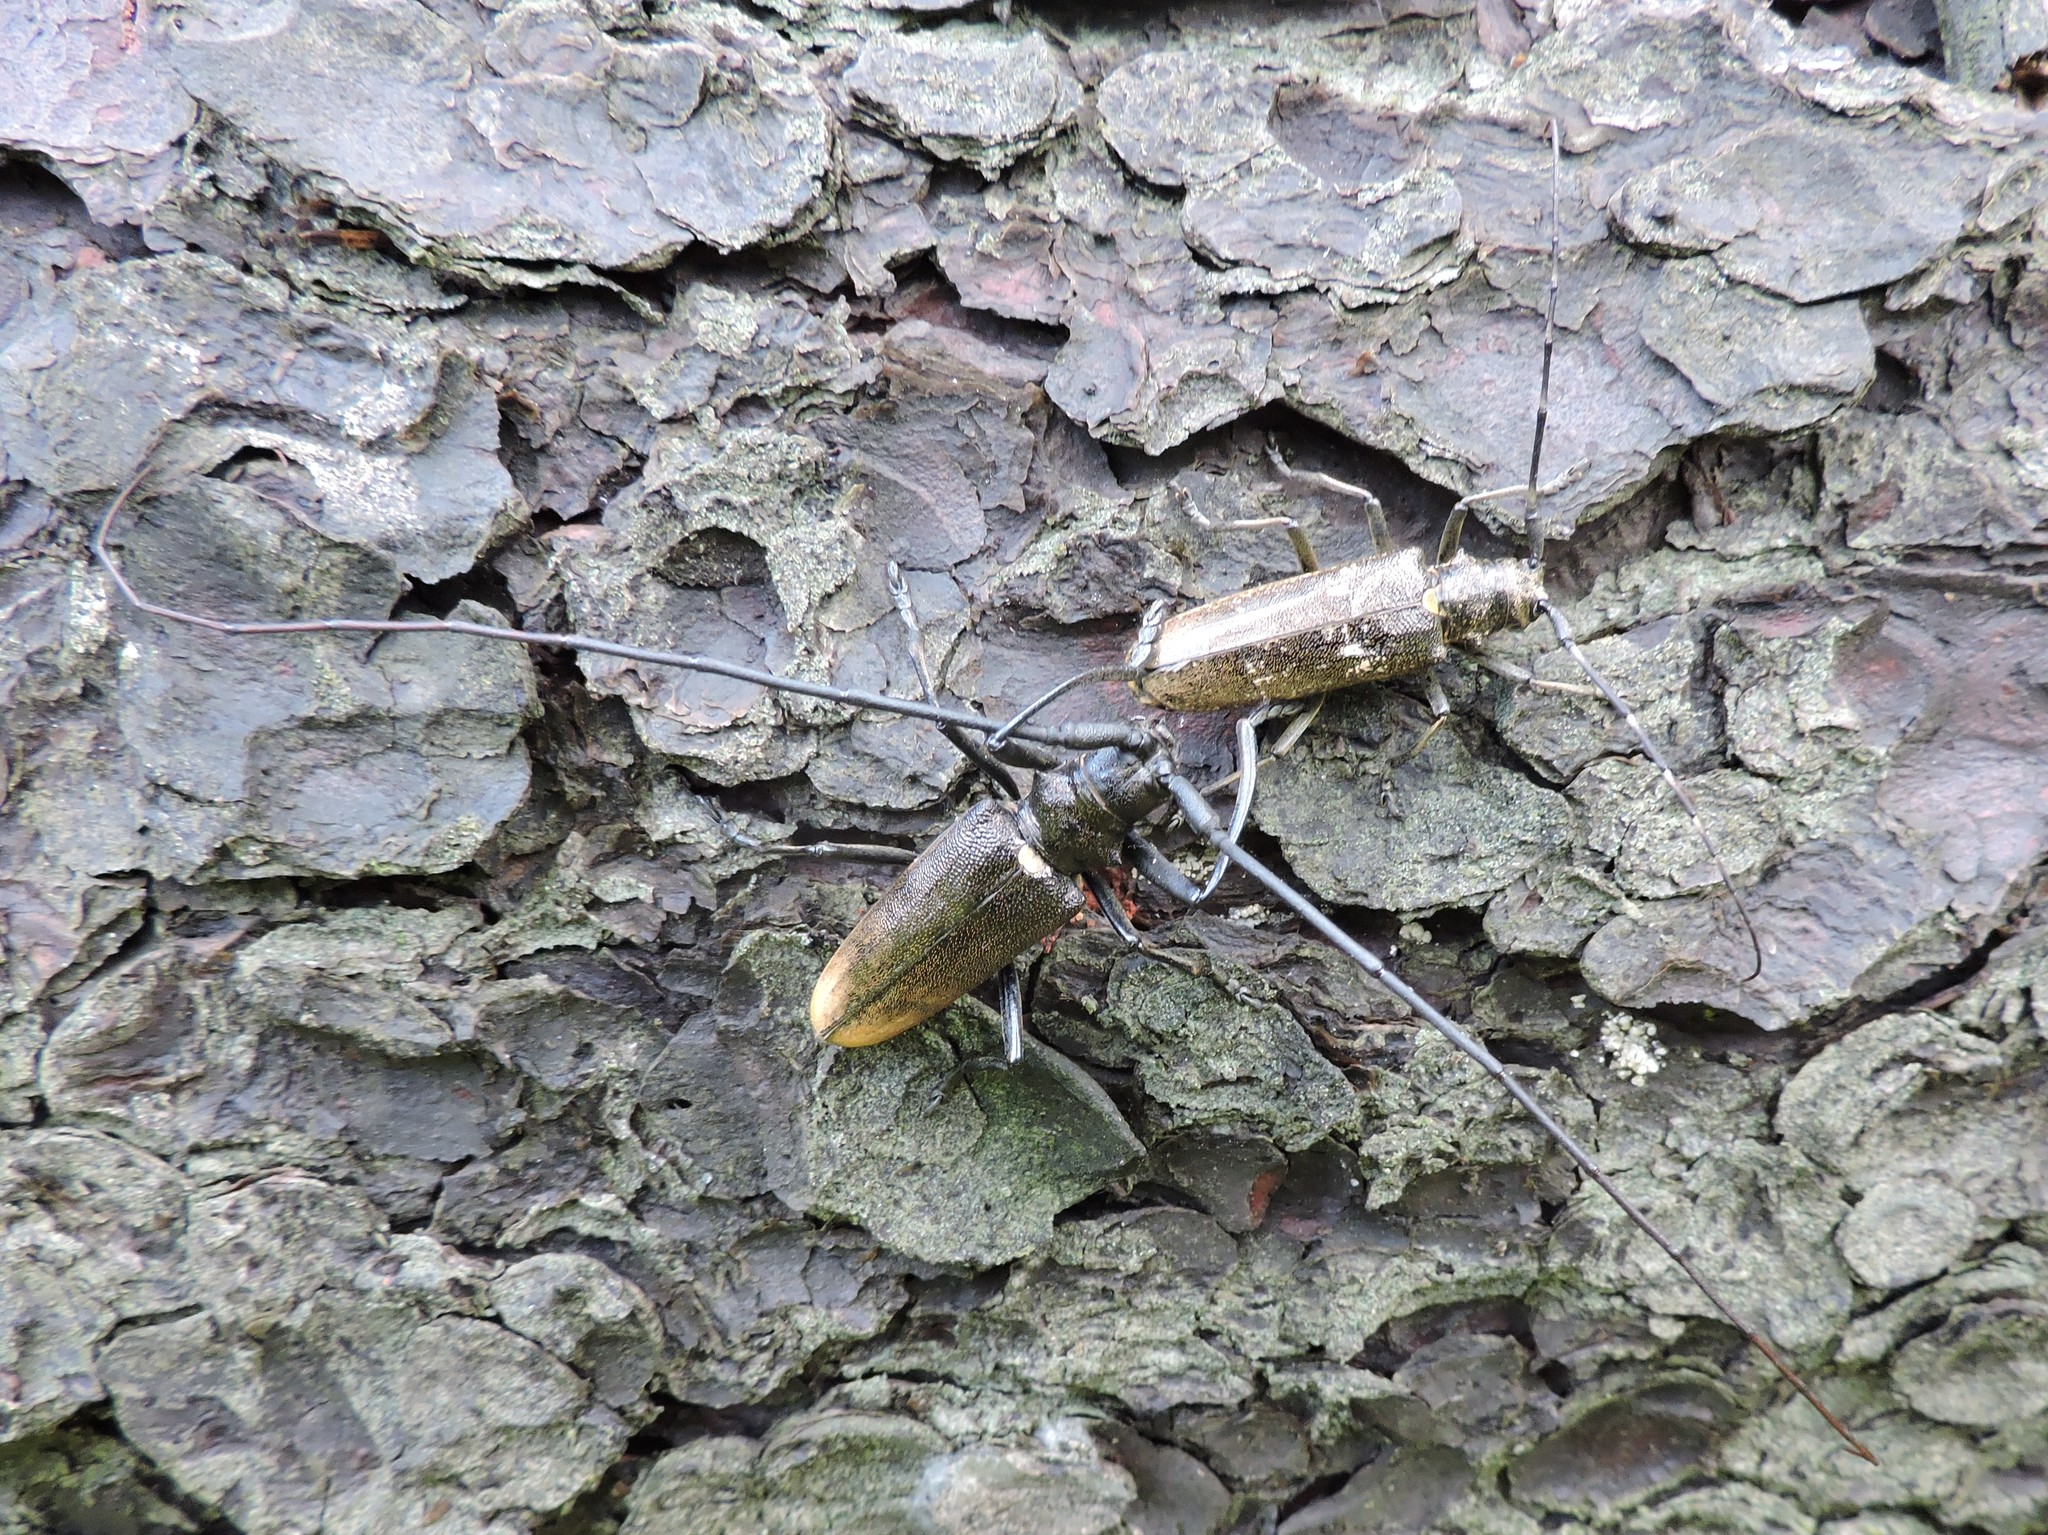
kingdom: Animalia
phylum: Arthropoda
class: Insecta
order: Coleoptera
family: Cerambycidae
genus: Monochamus
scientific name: Monochamus sartor
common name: Pine sawyer
